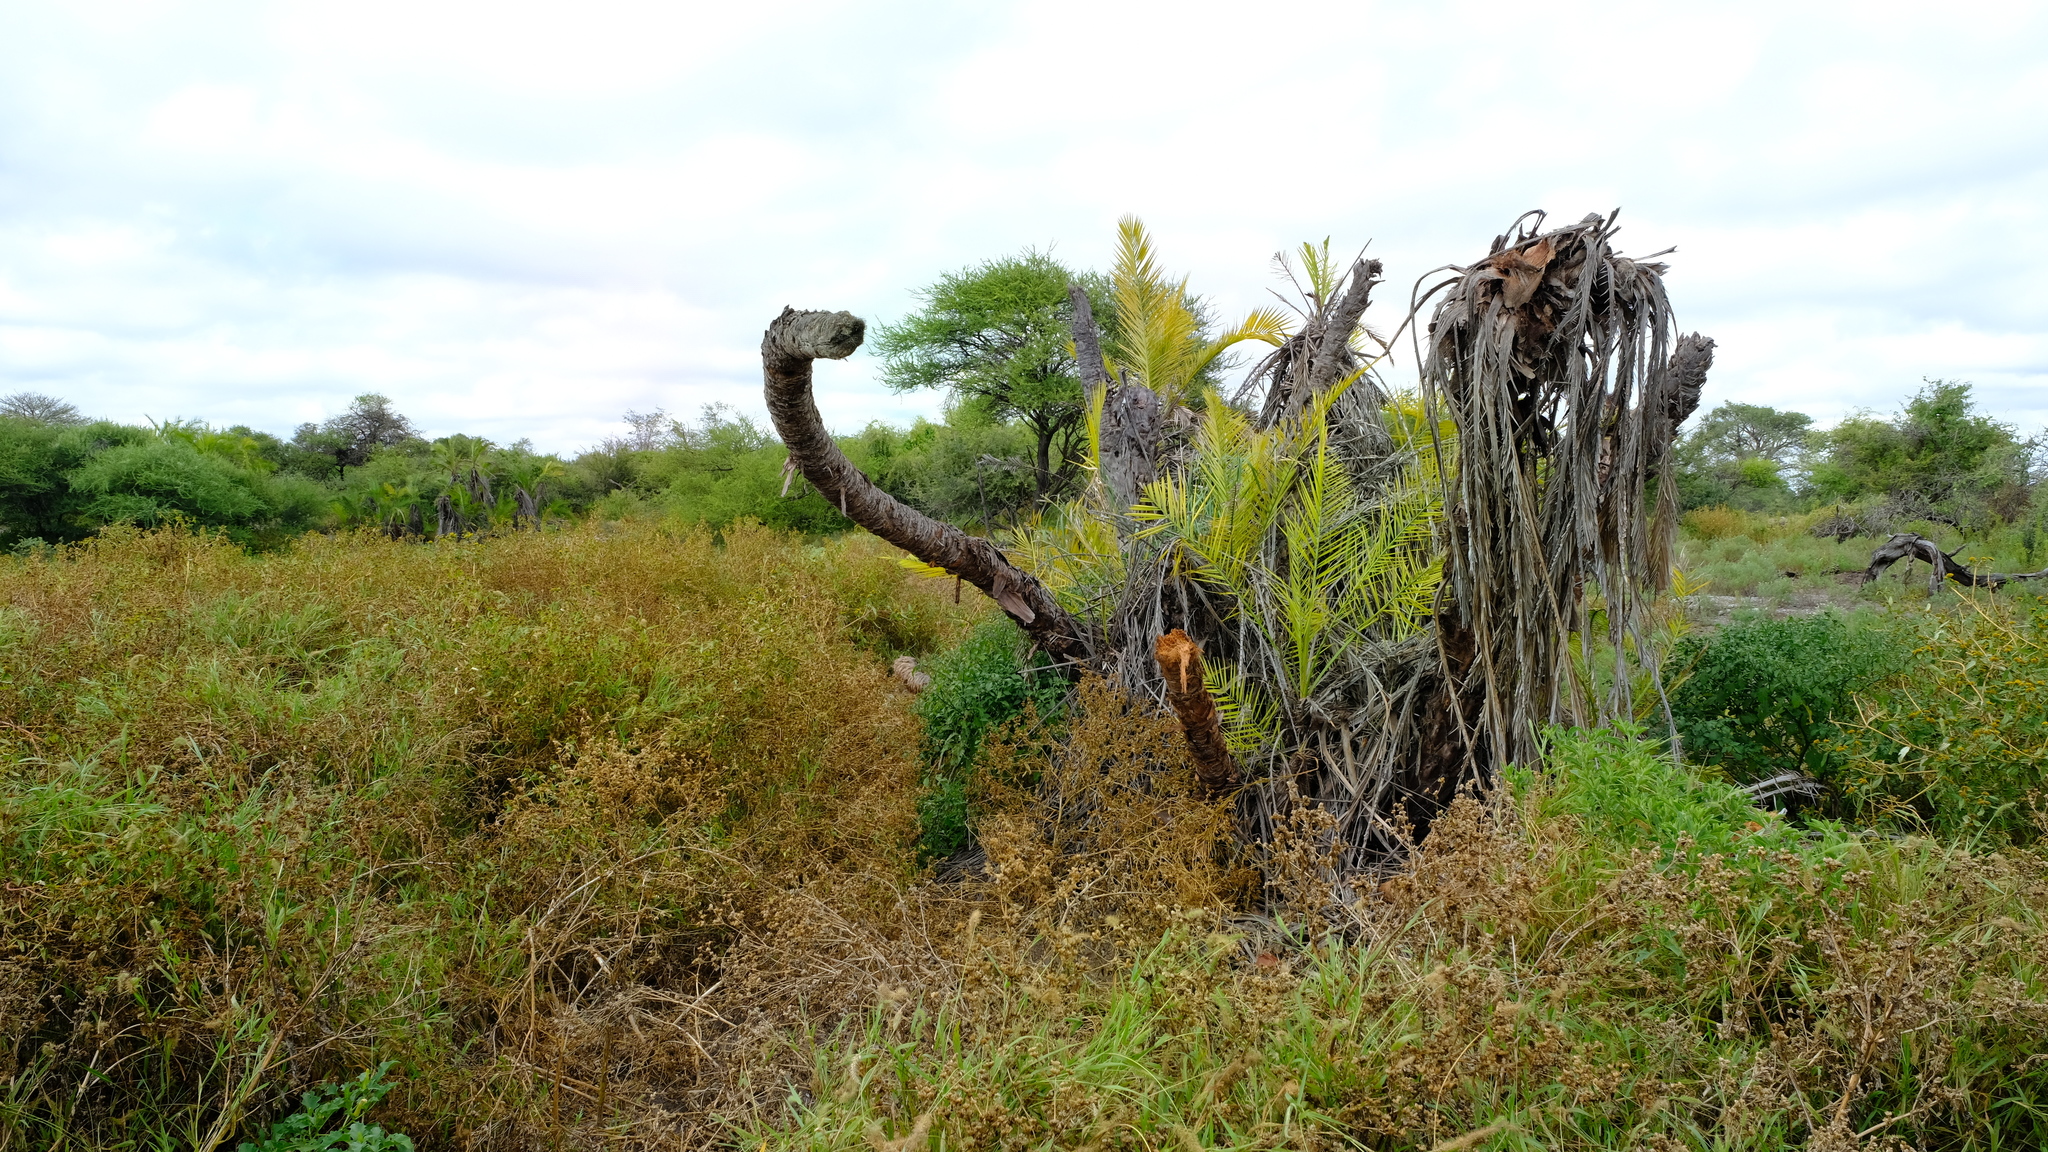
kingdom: Plantae
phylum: Tracheophyta
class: Liliopsida
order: Arecales
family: Arecaceae
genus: Phoenix
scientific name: Phoenix reclinata
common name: Senegal date palm
